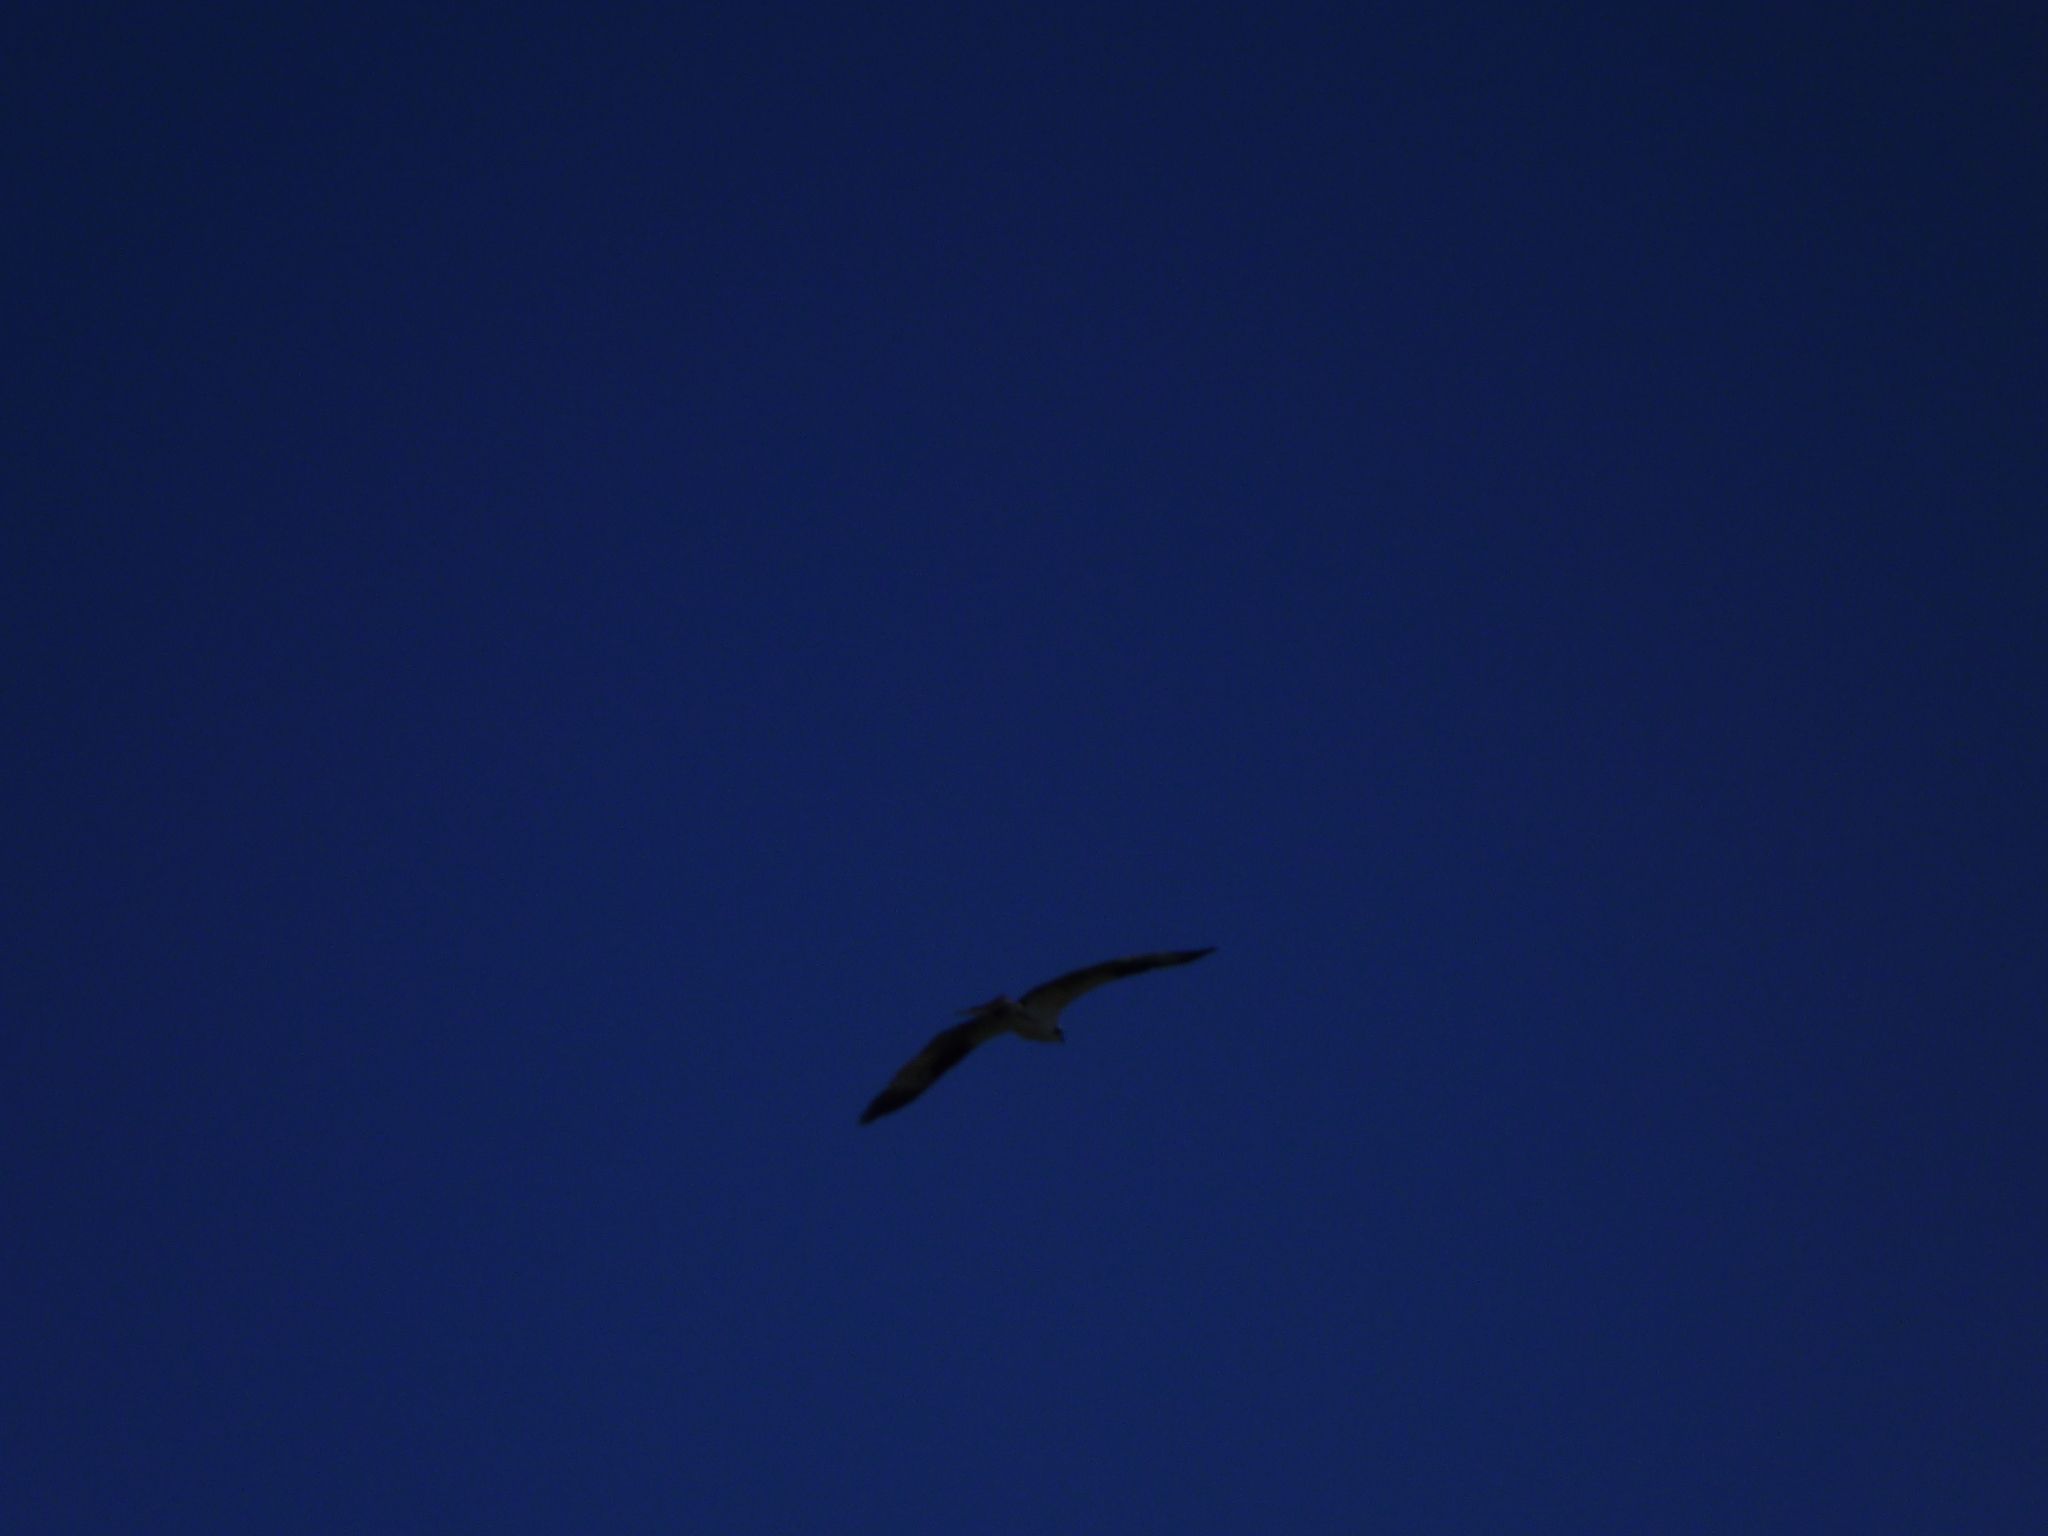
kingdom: Animalia
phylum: Chordata
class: Aves
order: Accipitriformes
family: Pandionidae
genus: Pandion
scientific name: Pandion haliaetus
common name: Osprey
